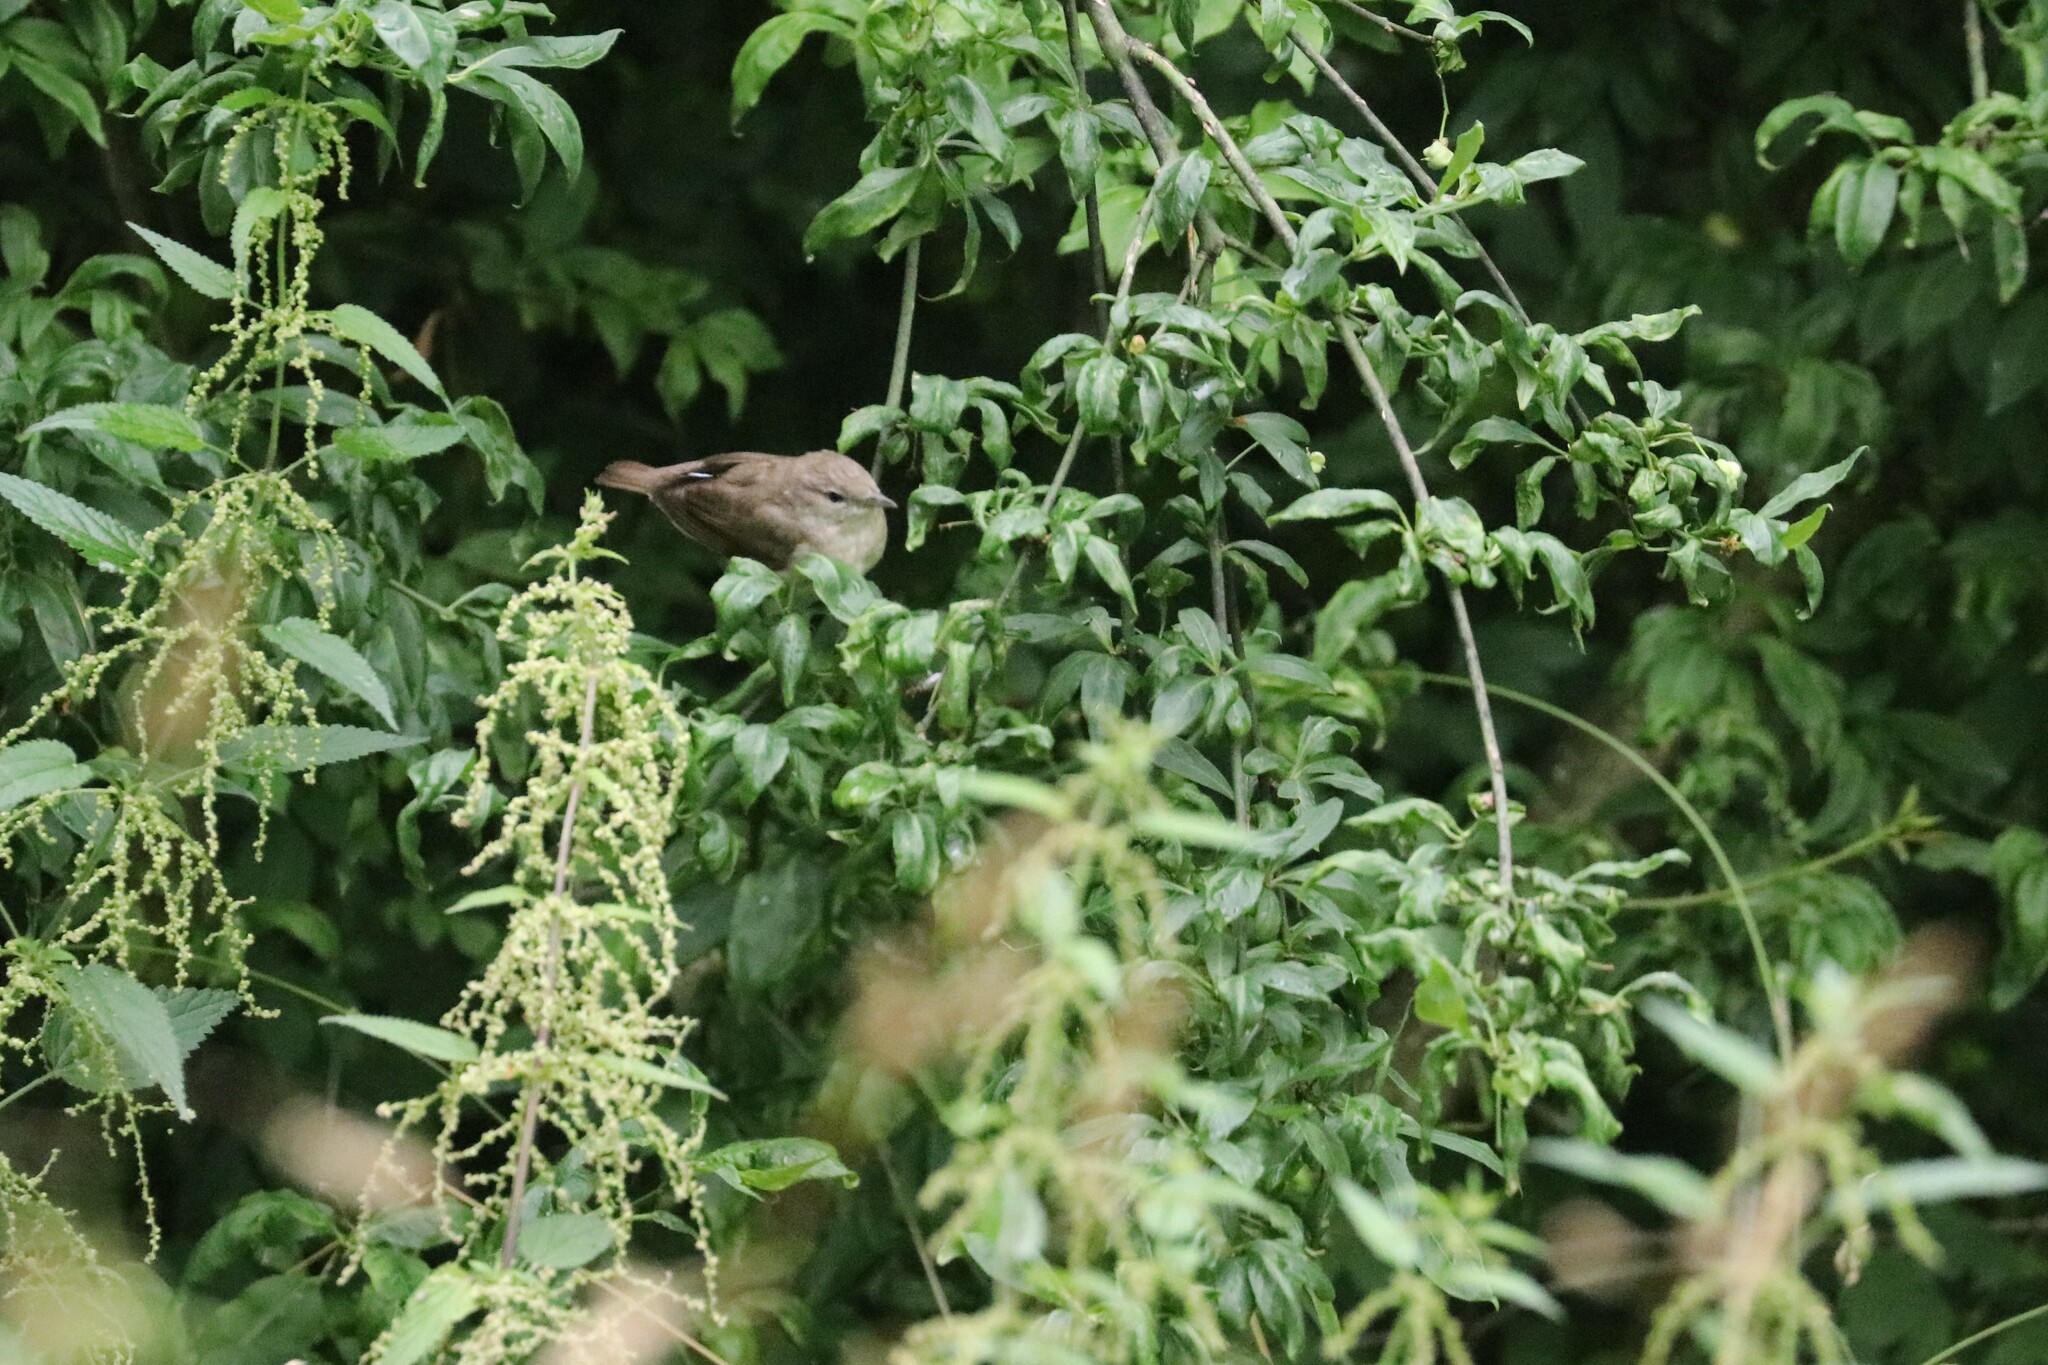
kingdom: Animalia
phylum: Chordata
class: Aves
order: Passeriformes
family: Sylviidae
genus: Sylvia
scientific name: Sylvia borin
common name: Garden warbler
